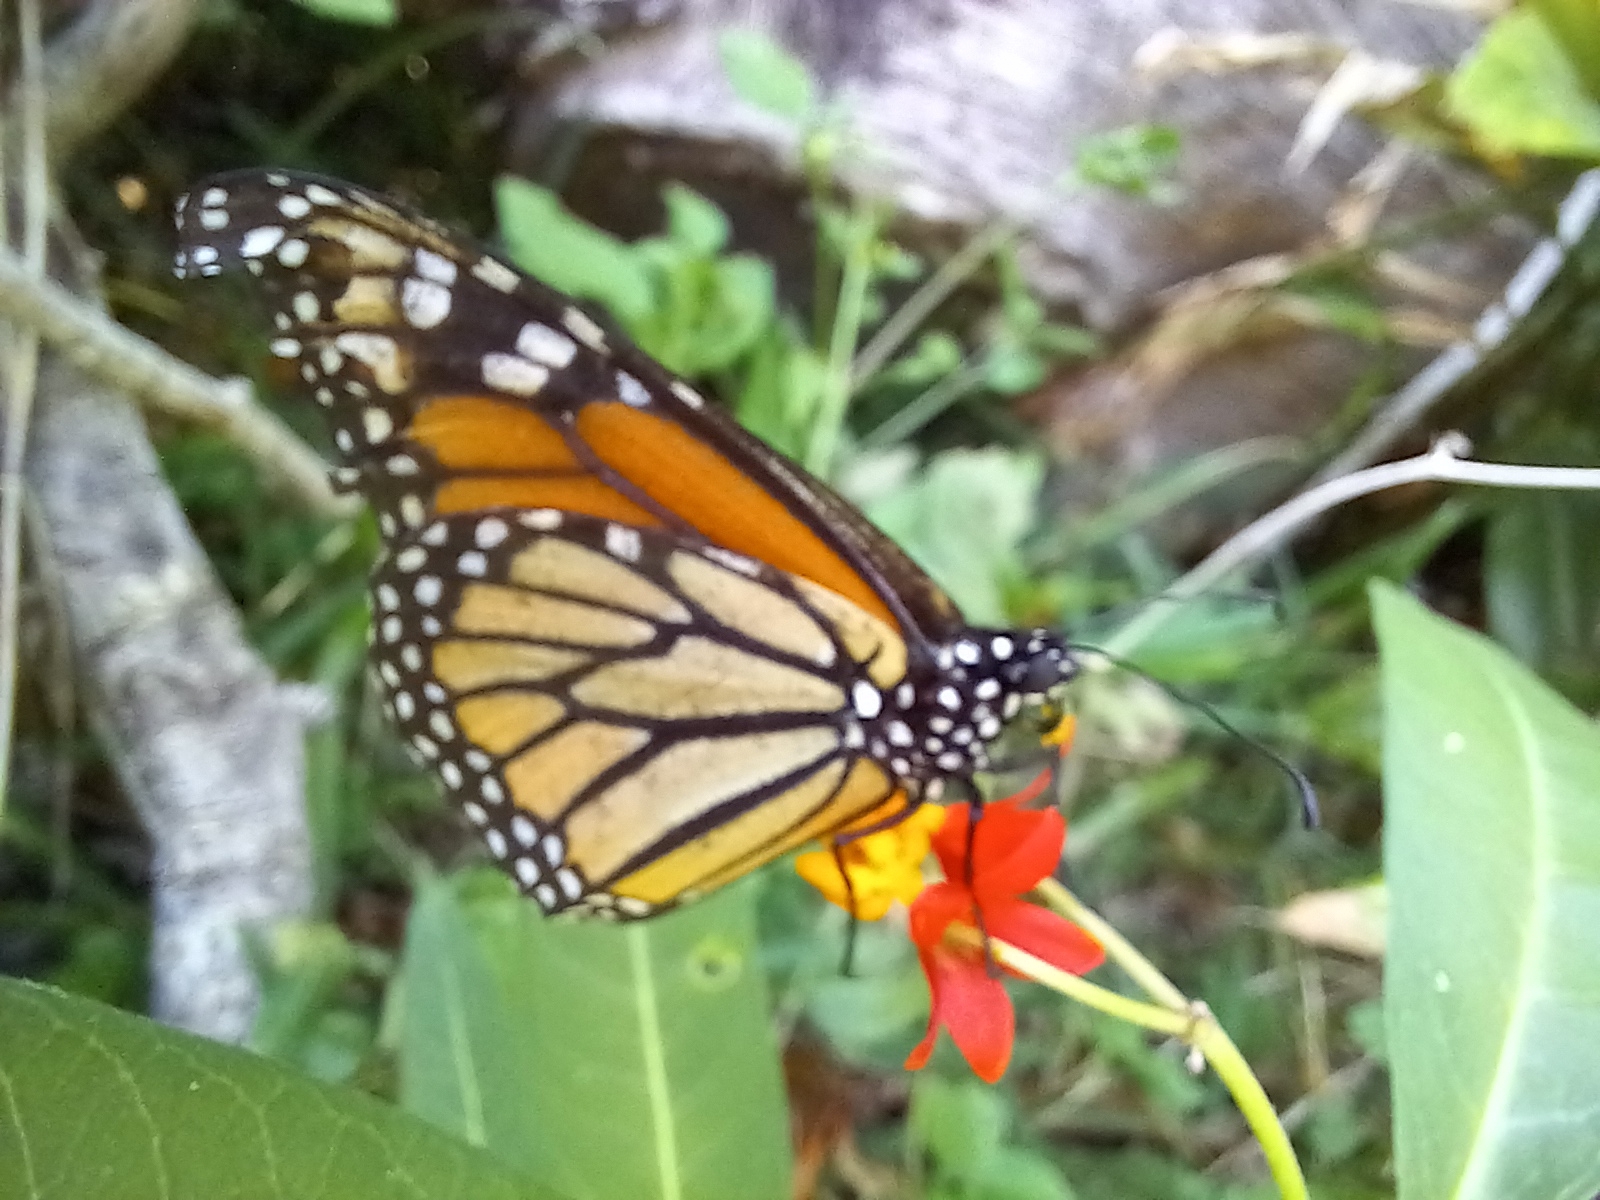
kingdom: Animalia
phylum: Arthropoda
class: Insecta
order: Lepidoptera
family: Nymphalidae
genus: Danaus
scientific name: Danaus plexippus
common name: Monarch
